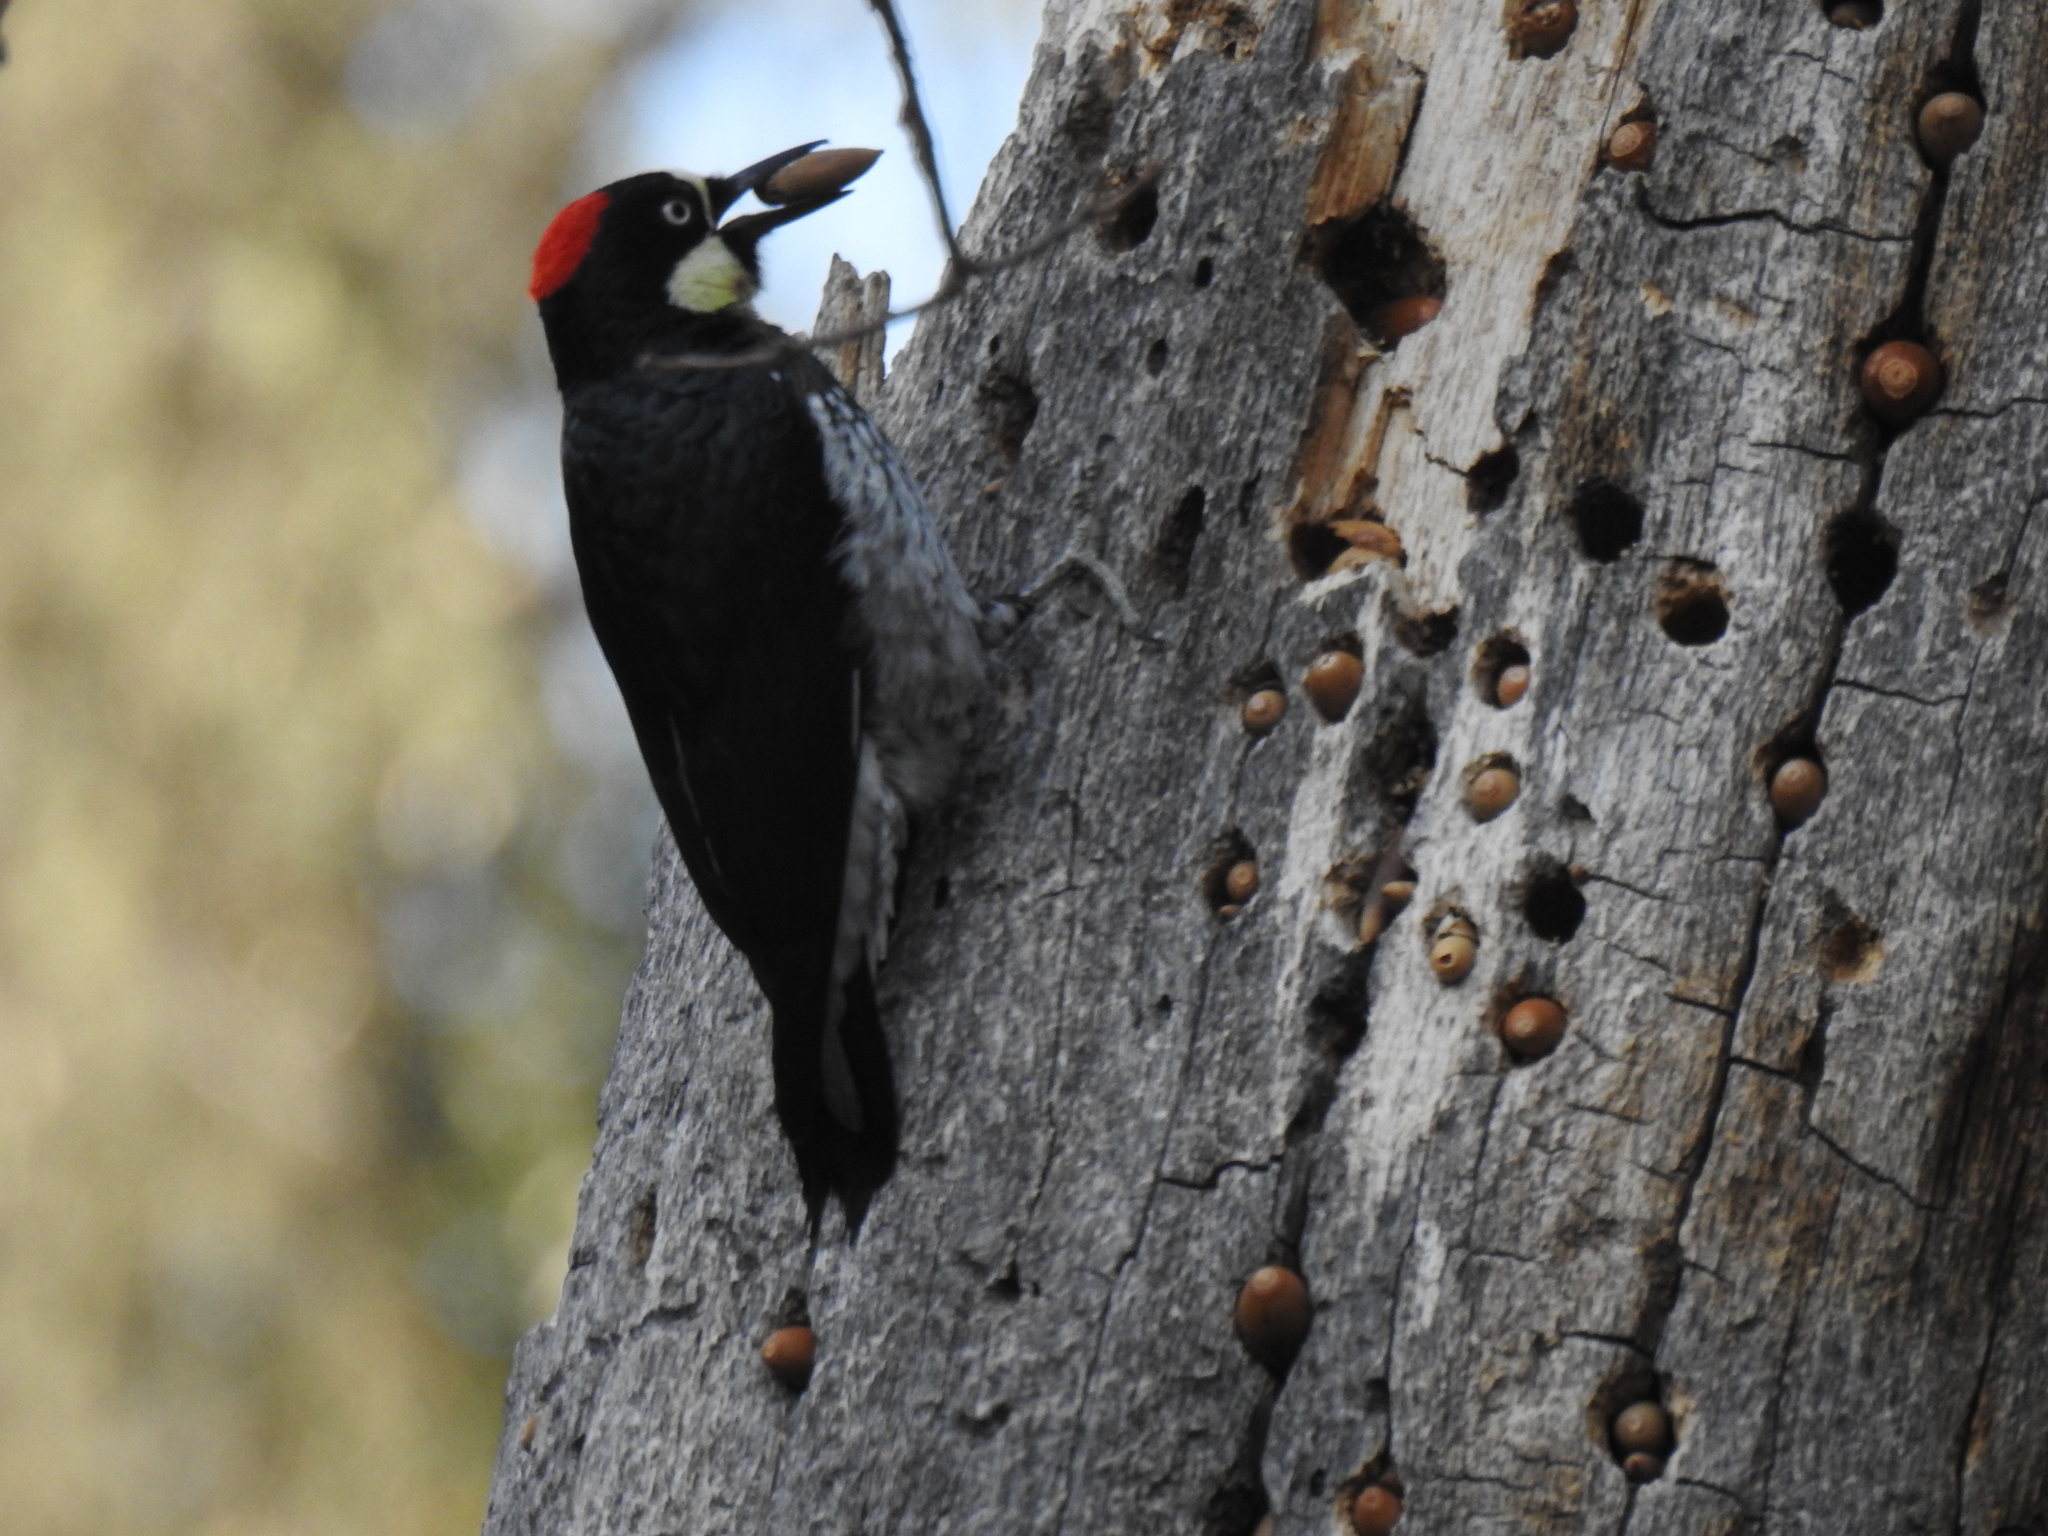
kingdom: Animalia
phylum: Chordata
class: Aves
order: Piciformes
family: Picidae
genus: Melanerpes
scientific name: Melanerpes formicivorus
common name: Acorn woodpecker
